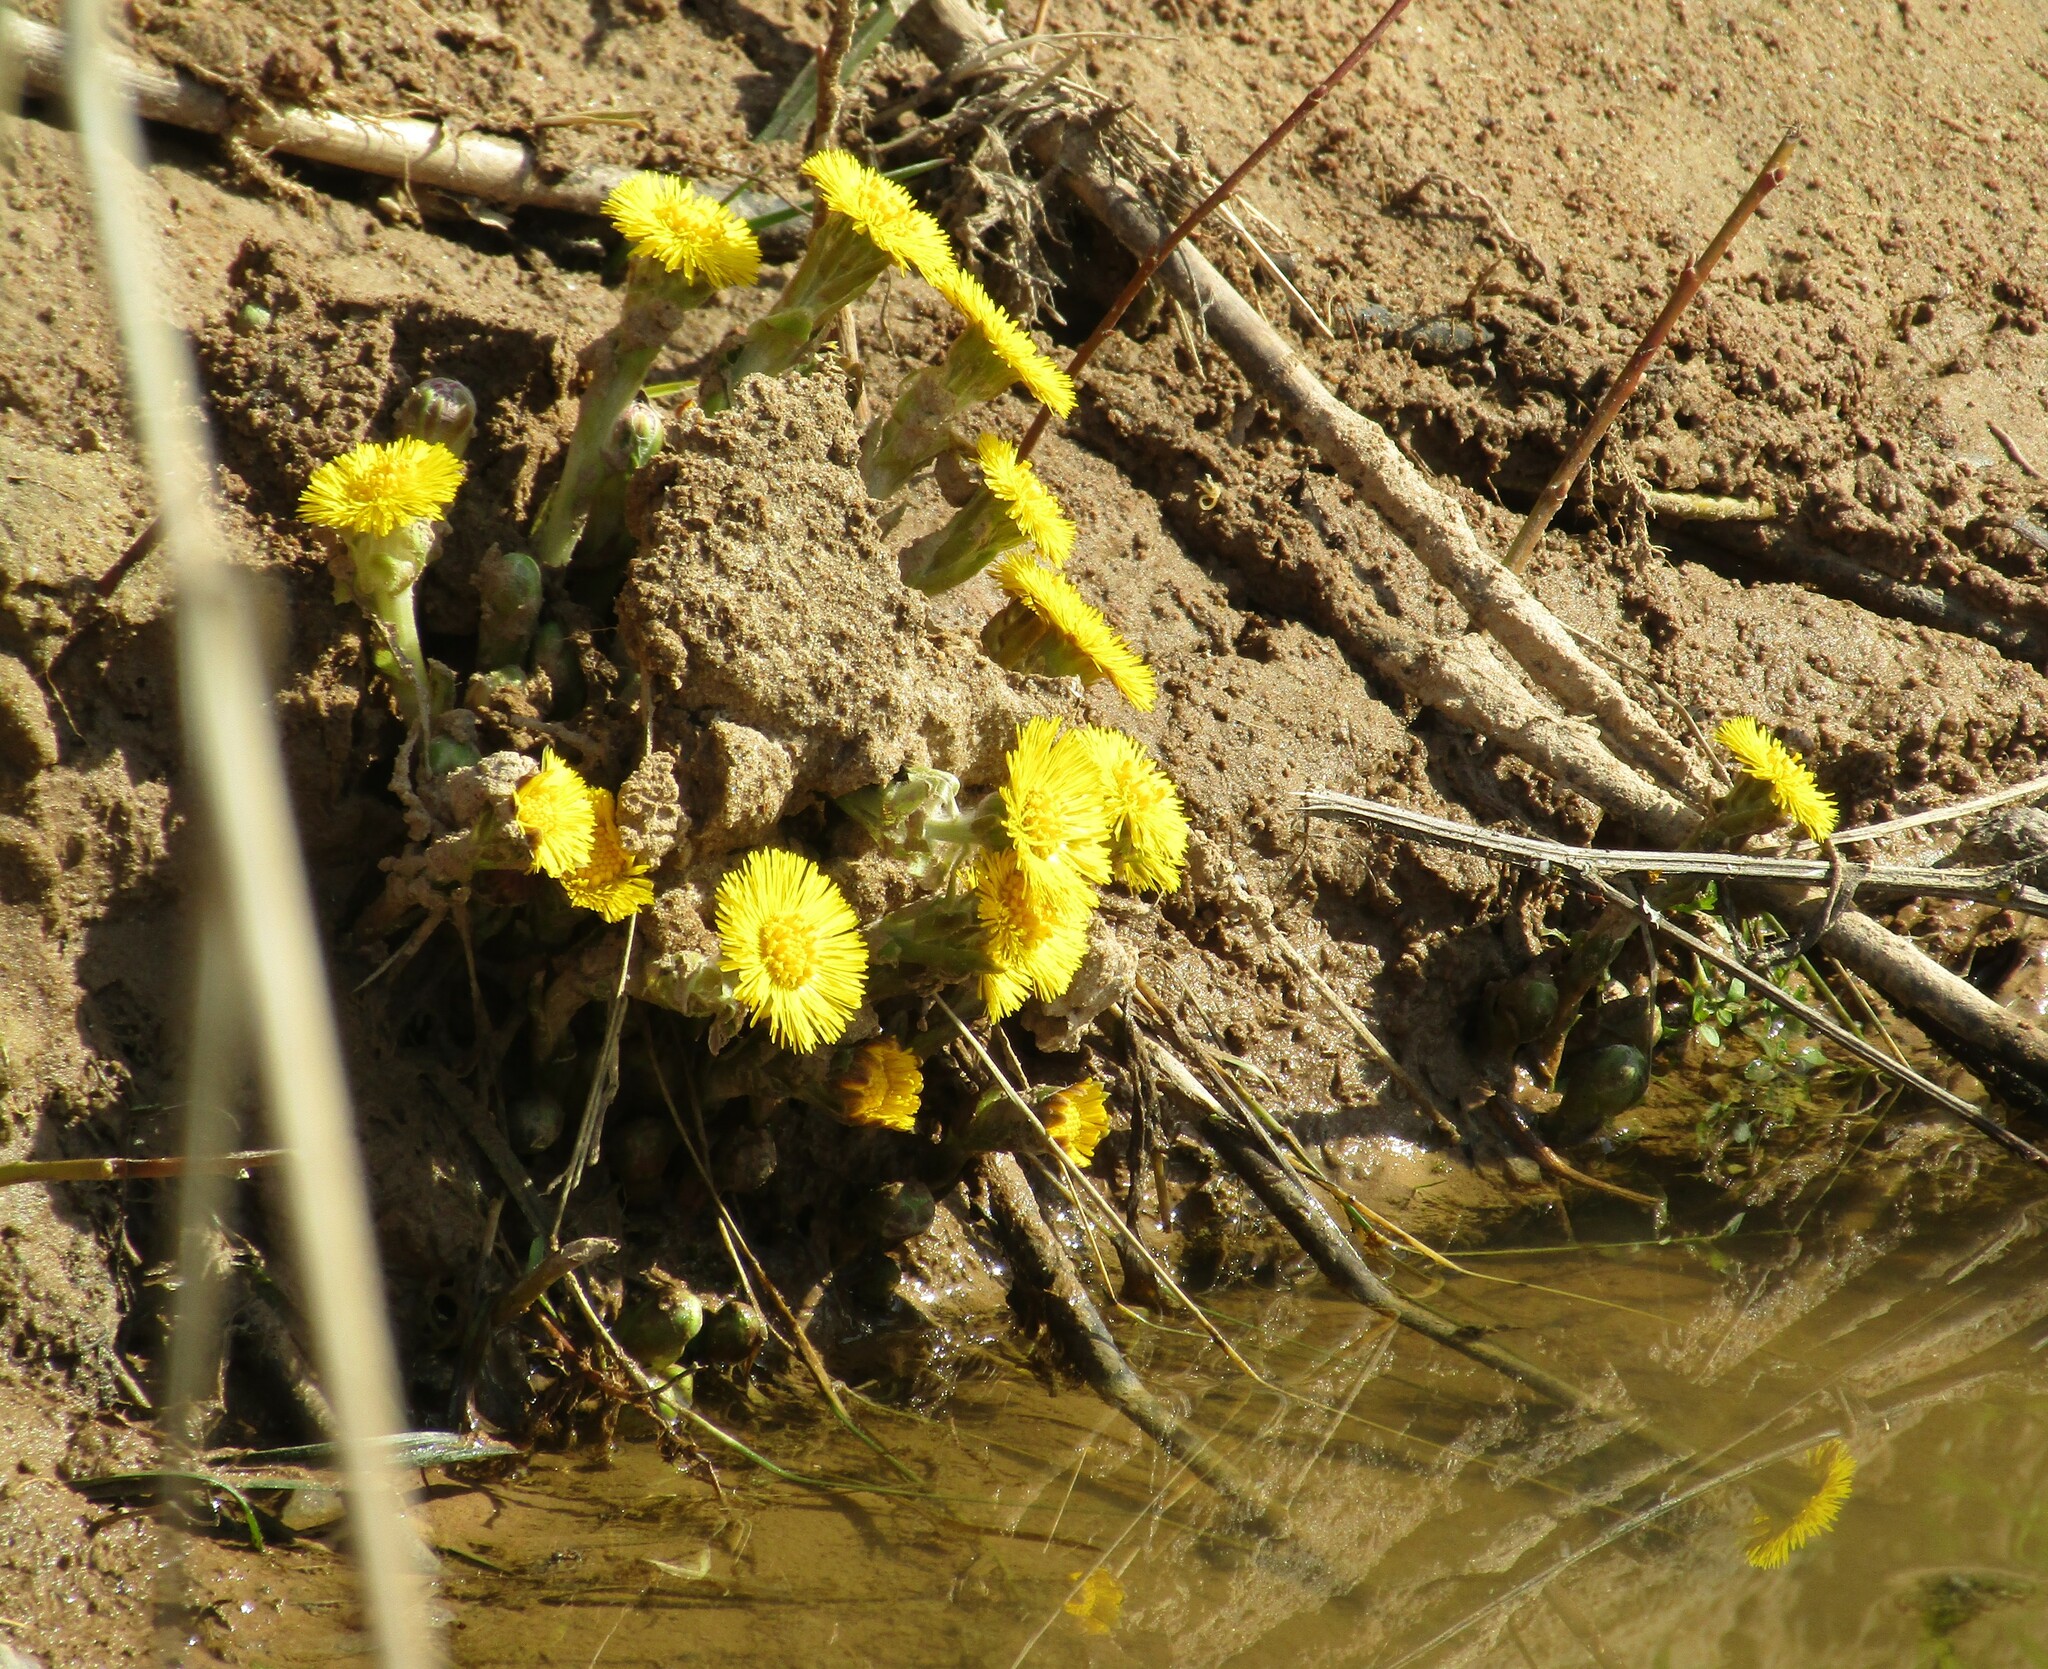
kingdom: Plantae
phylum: Tracheophyta
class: Magnoliopsida
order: Asterales
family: Asteraceae
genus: Tussilago
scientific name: Tussilago farfara
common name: Coltsfoot
